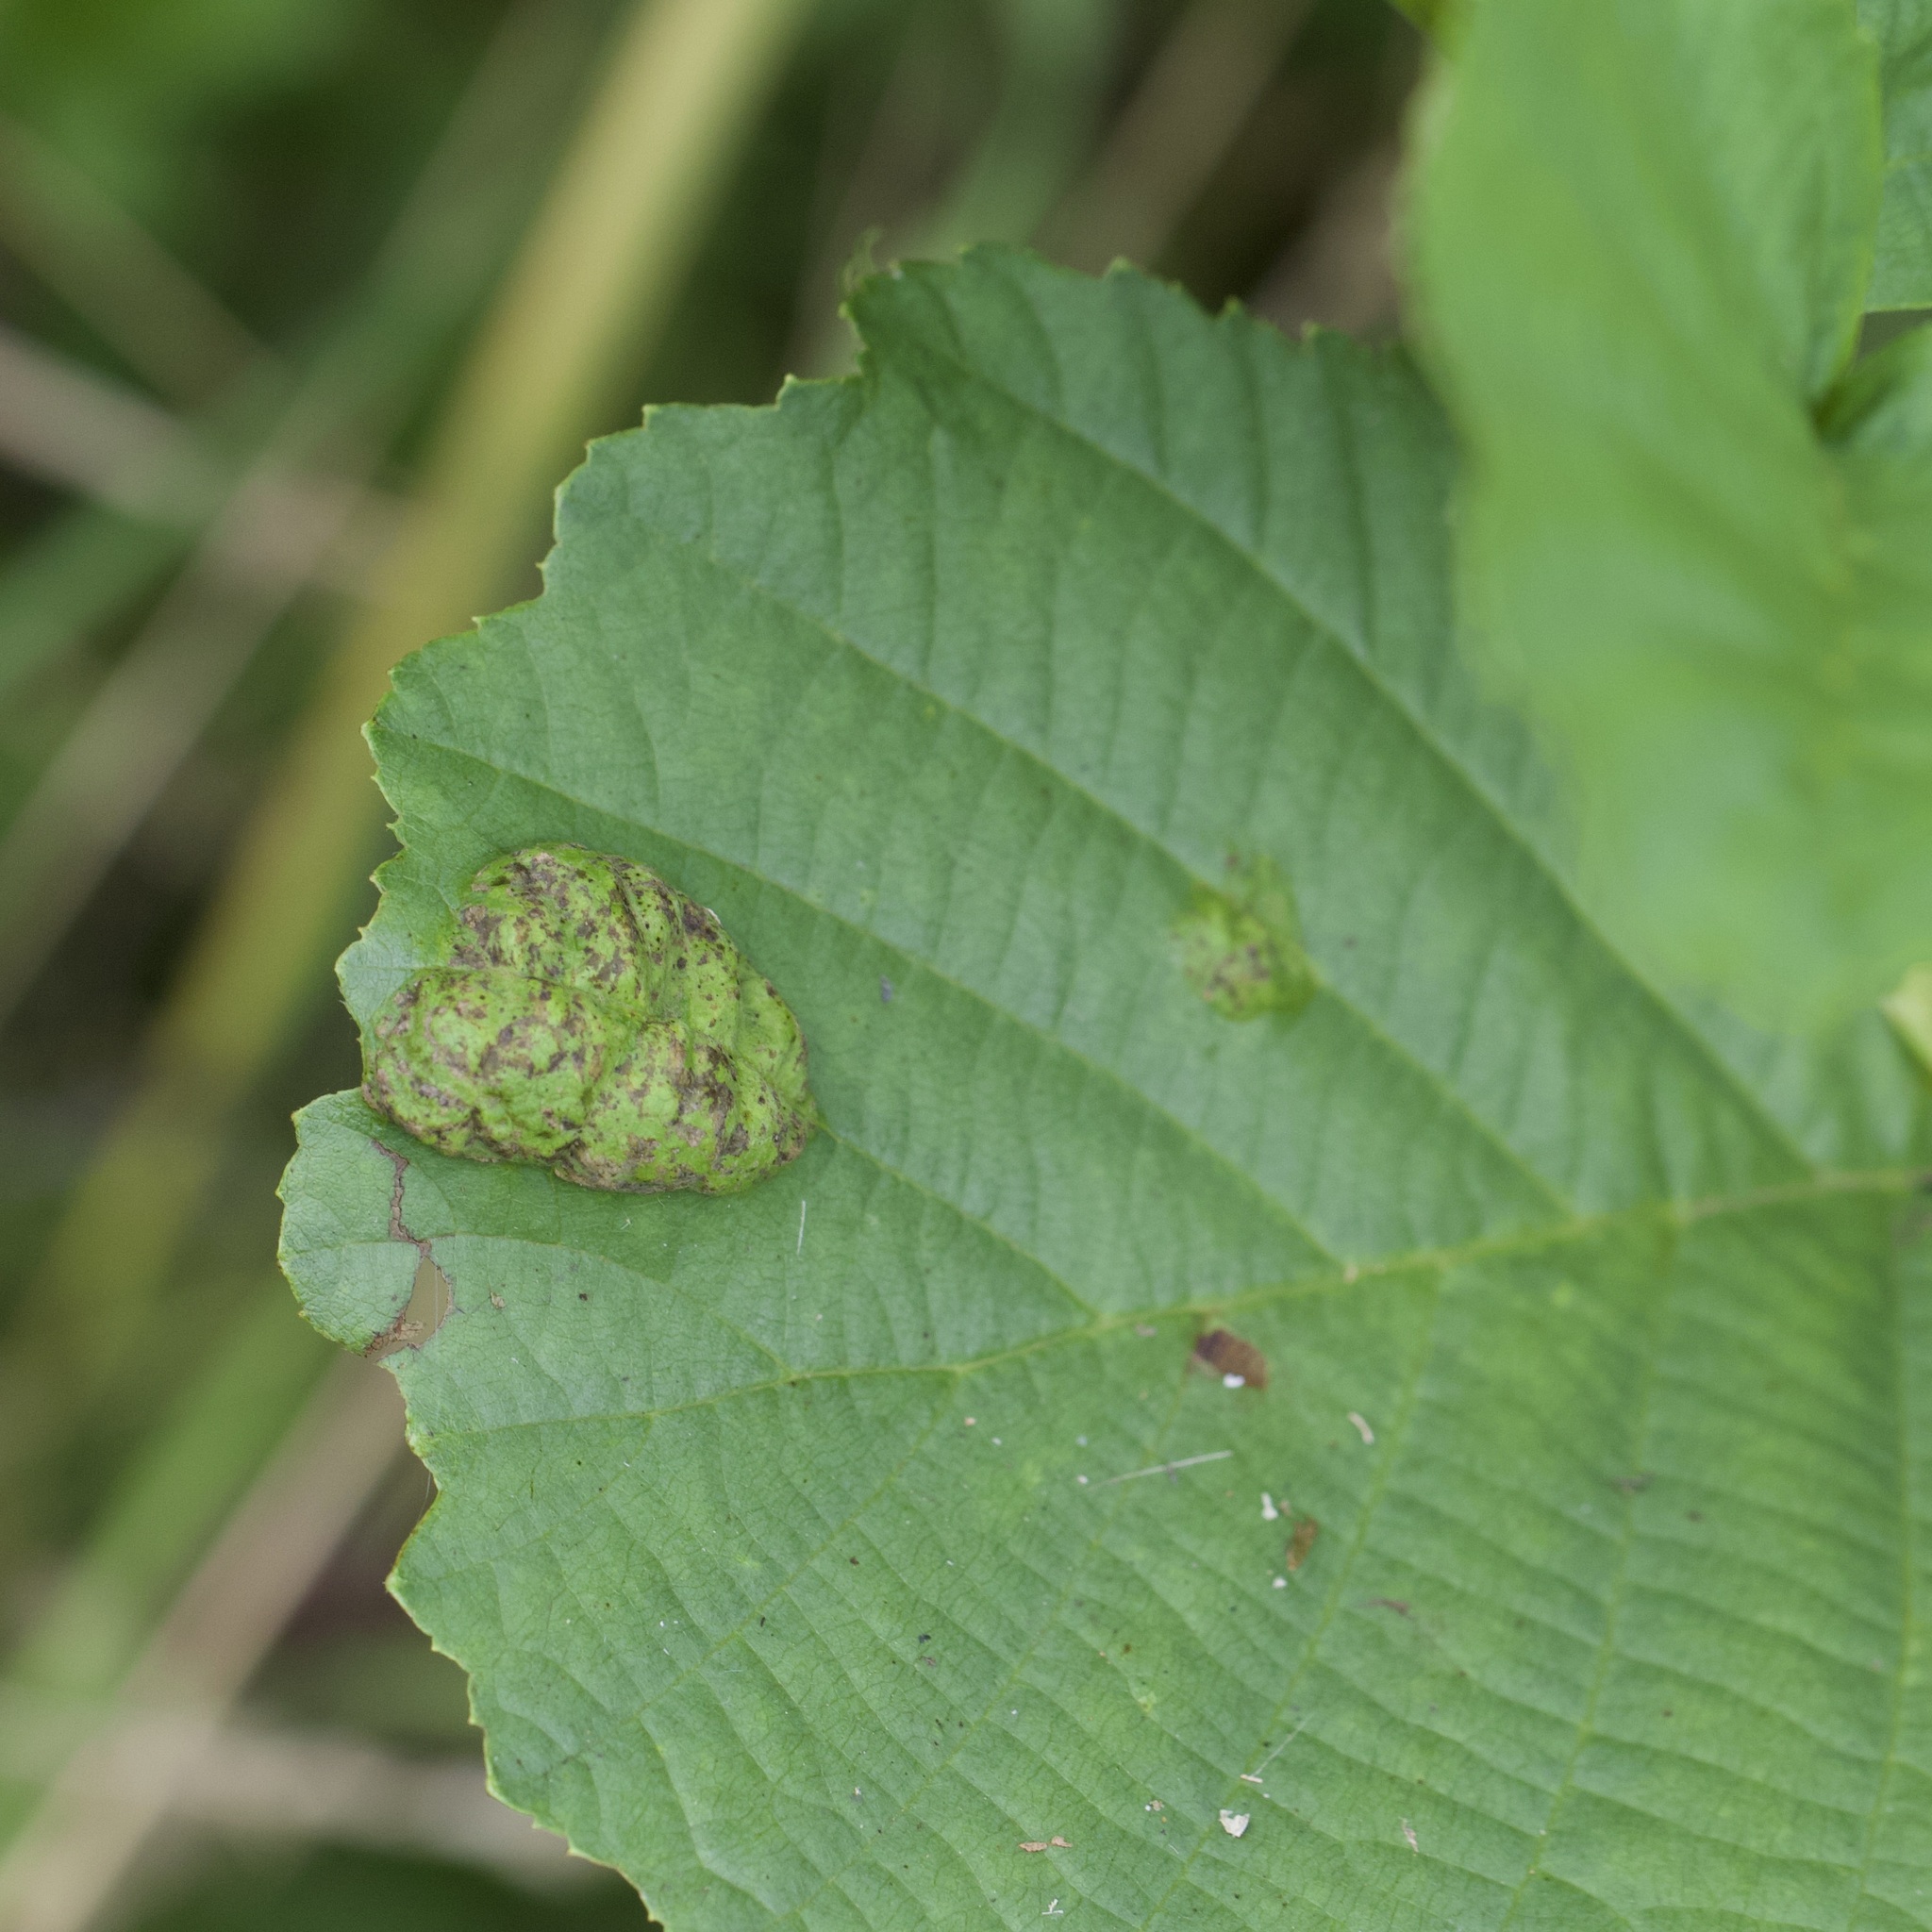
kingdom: Fungi
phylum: Ascomycota
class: Taphrinomycetes
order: Taphrinales
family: Taphrinaceae
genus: Taphrina
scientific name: Taphrina tosquinetii
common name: Alder wrinkle
